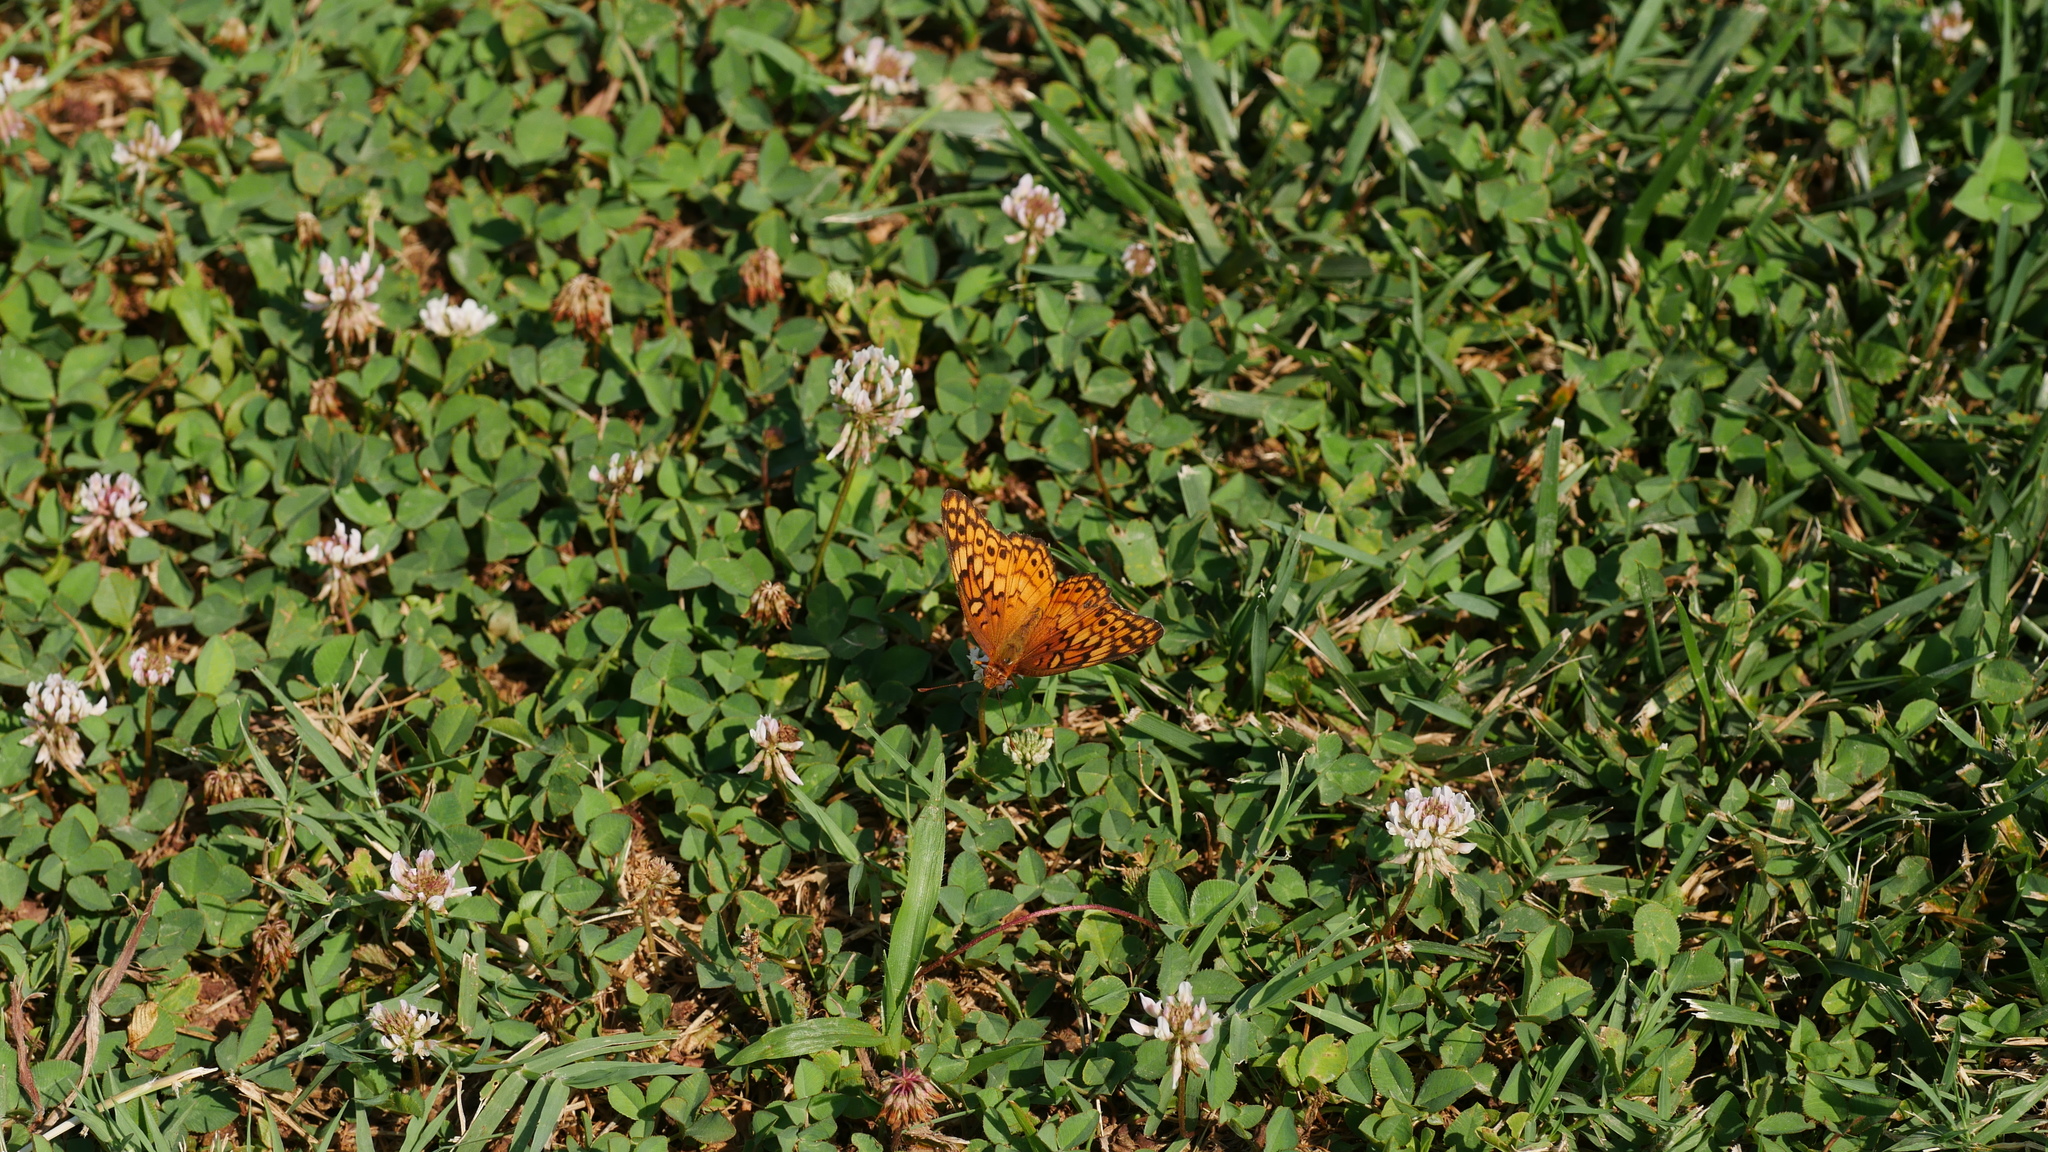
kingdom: Animalia
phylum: Arthropoda
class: Insecta
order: Lepidoptera
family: Nymphalidae
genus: Euptoieta
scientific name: Euptoieta claudia
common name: Variegated fritillary
